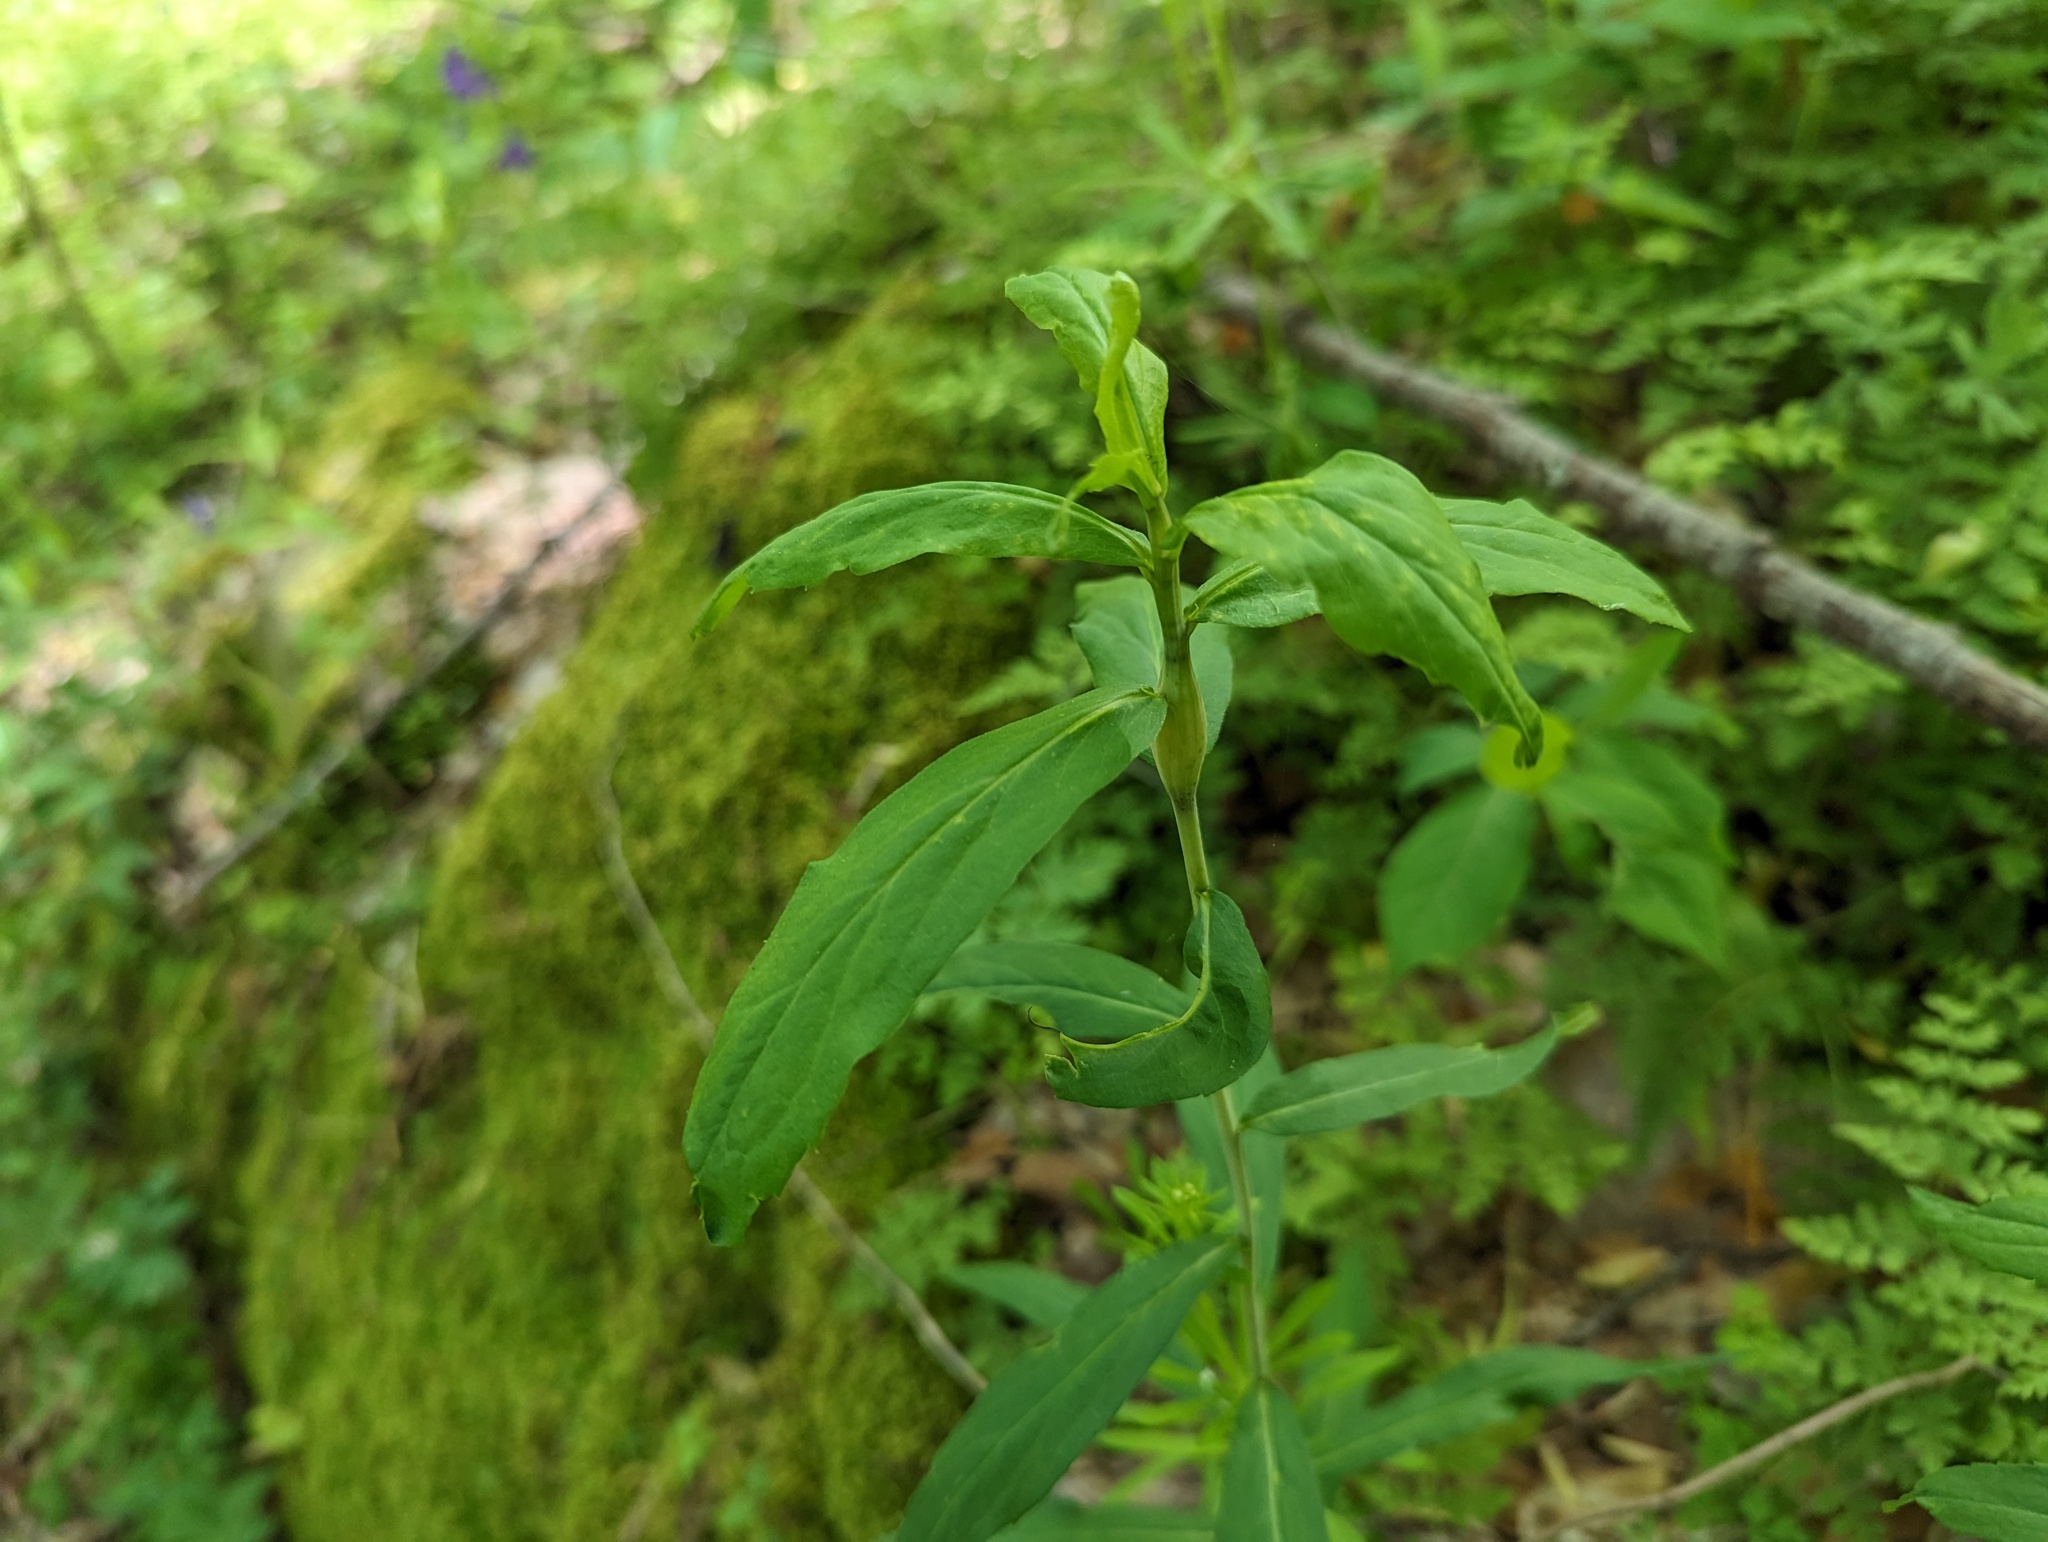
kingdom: Animalia
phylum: Arthropoda
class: Insecta
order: Lepidoptera
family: Gelechiidae
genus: Gnorimoschema
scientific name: Gnorimoschema gallaeasterella
